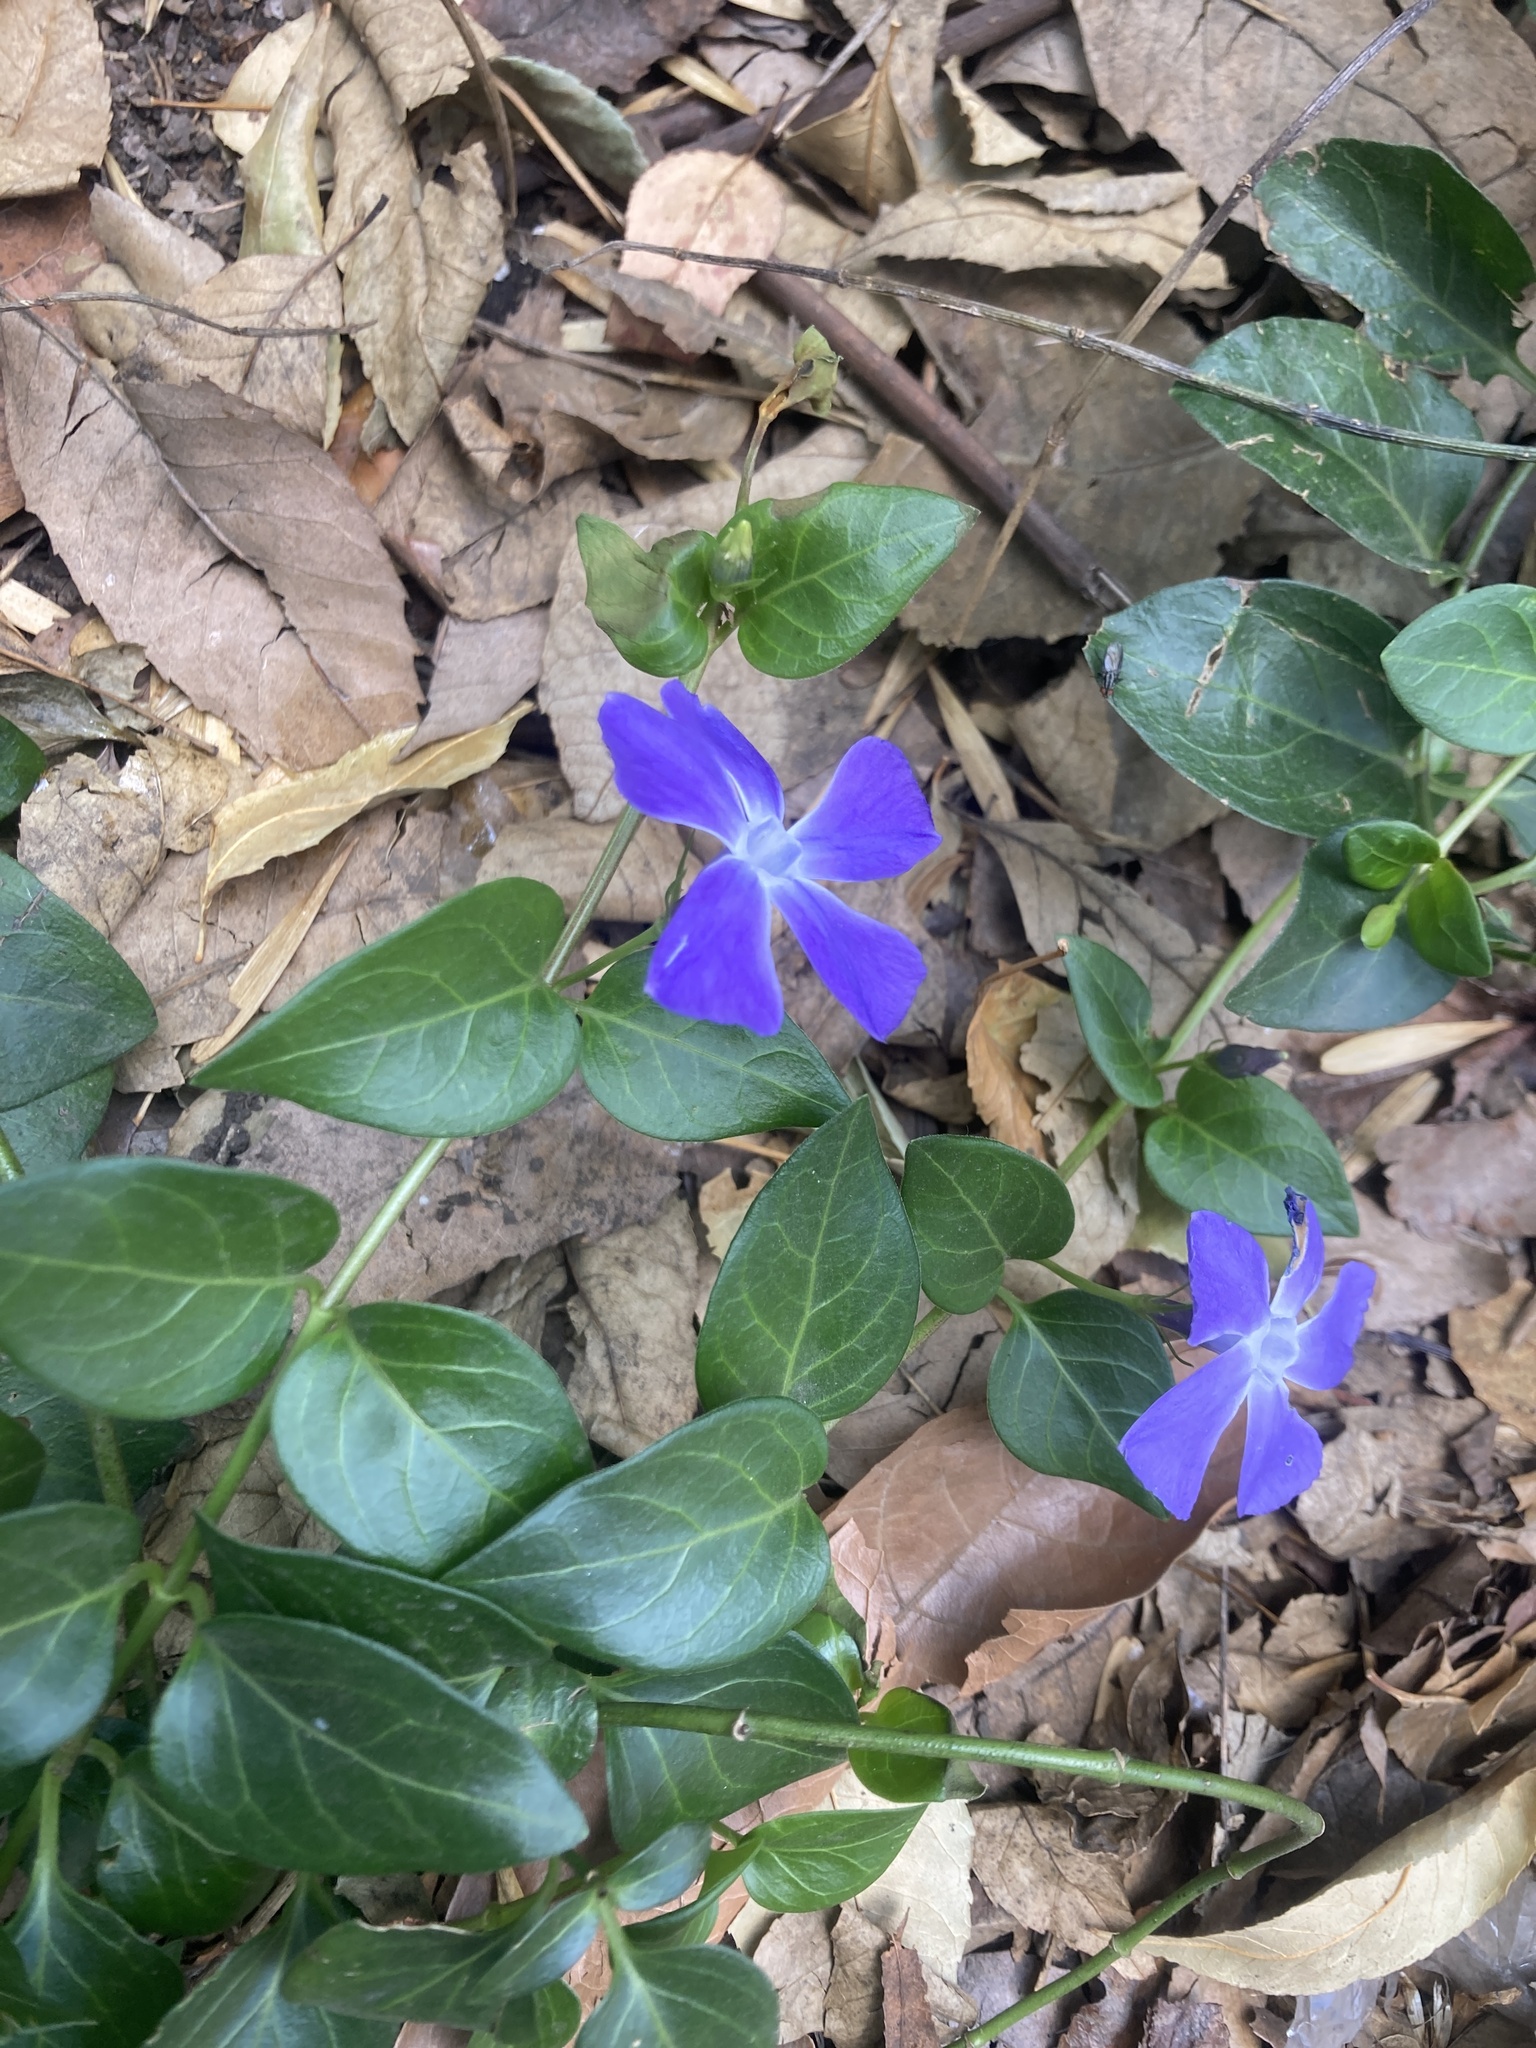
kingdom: Plantae
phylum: Tracheophyta
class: Magnoliopsida
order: Gentianales
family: Apocynaceae
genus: Vinca
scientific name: Vinca major
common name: Greater periwinkle
